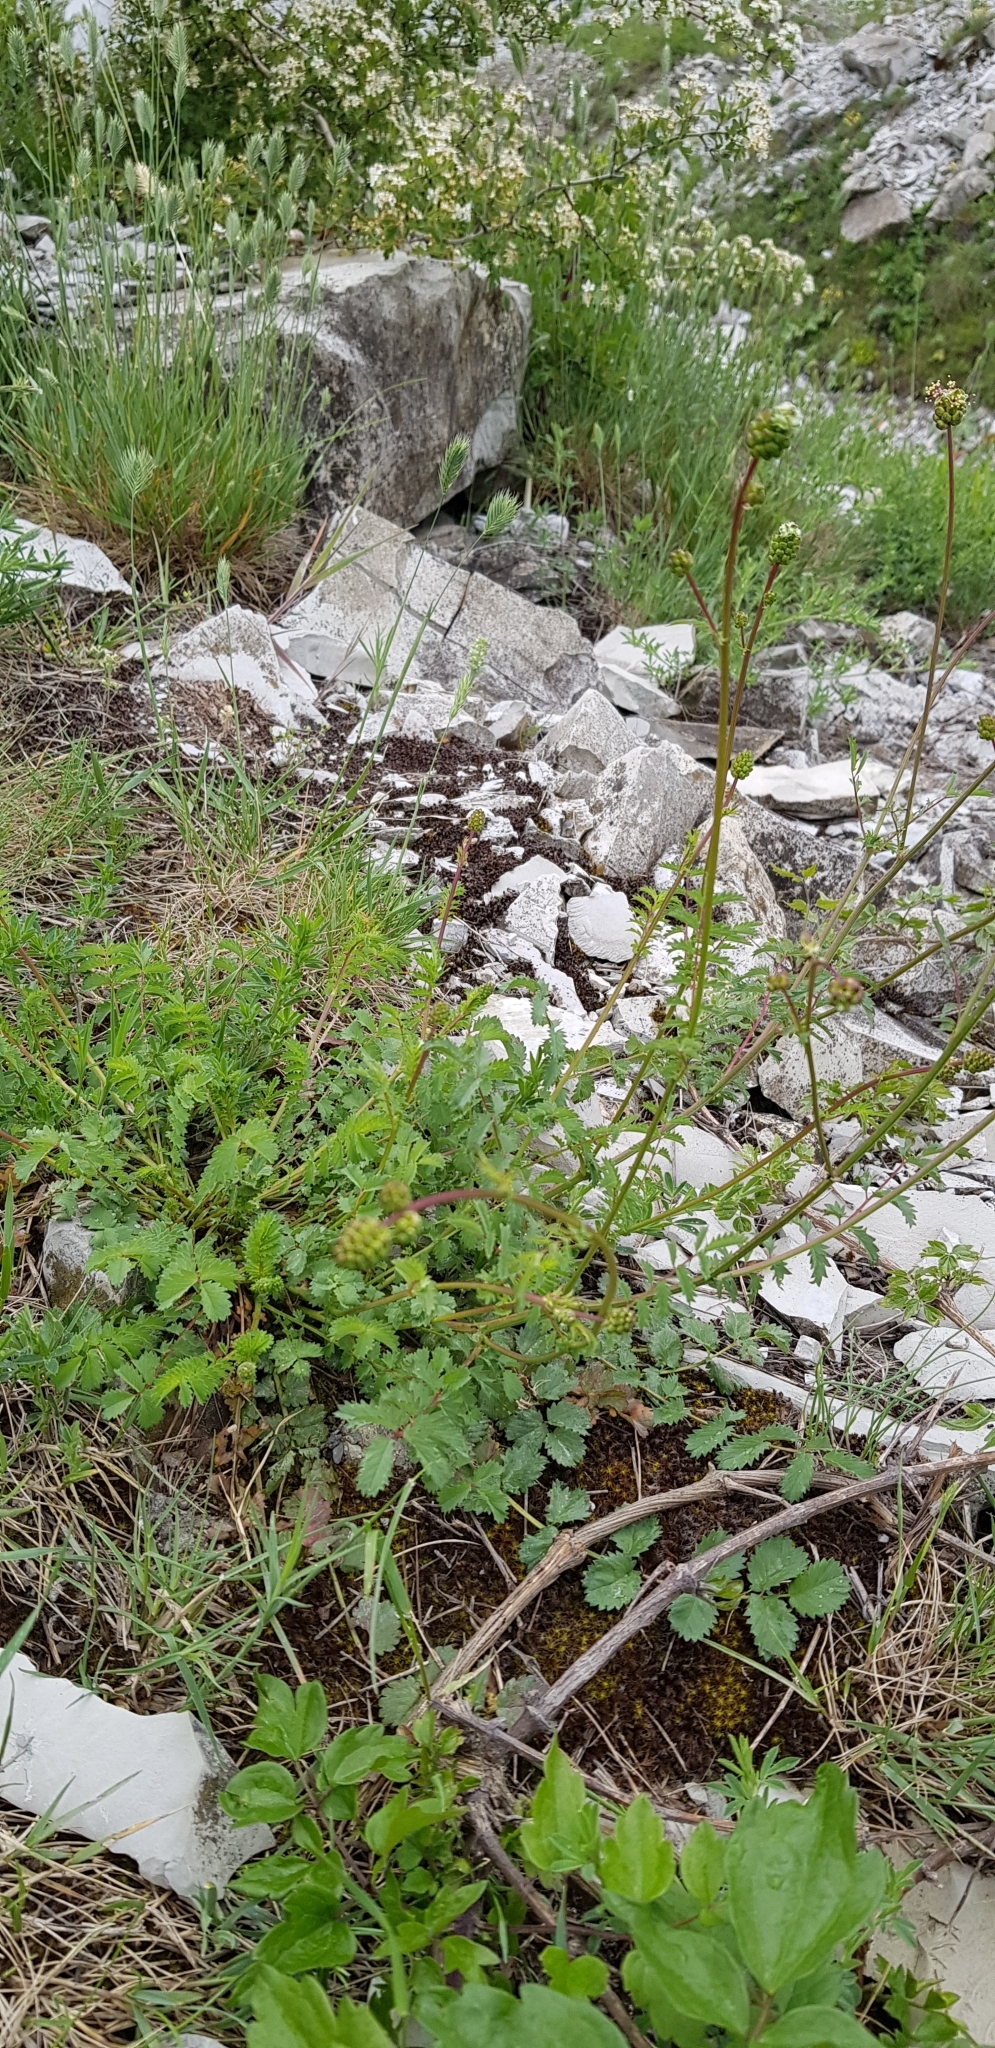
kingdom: Plantae
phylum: Tracheophyta
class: Magnoliopsida
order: Rosales
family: Rosaceae
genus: Poterium
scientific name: Poterium sanguisorba
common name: Salad burnet
